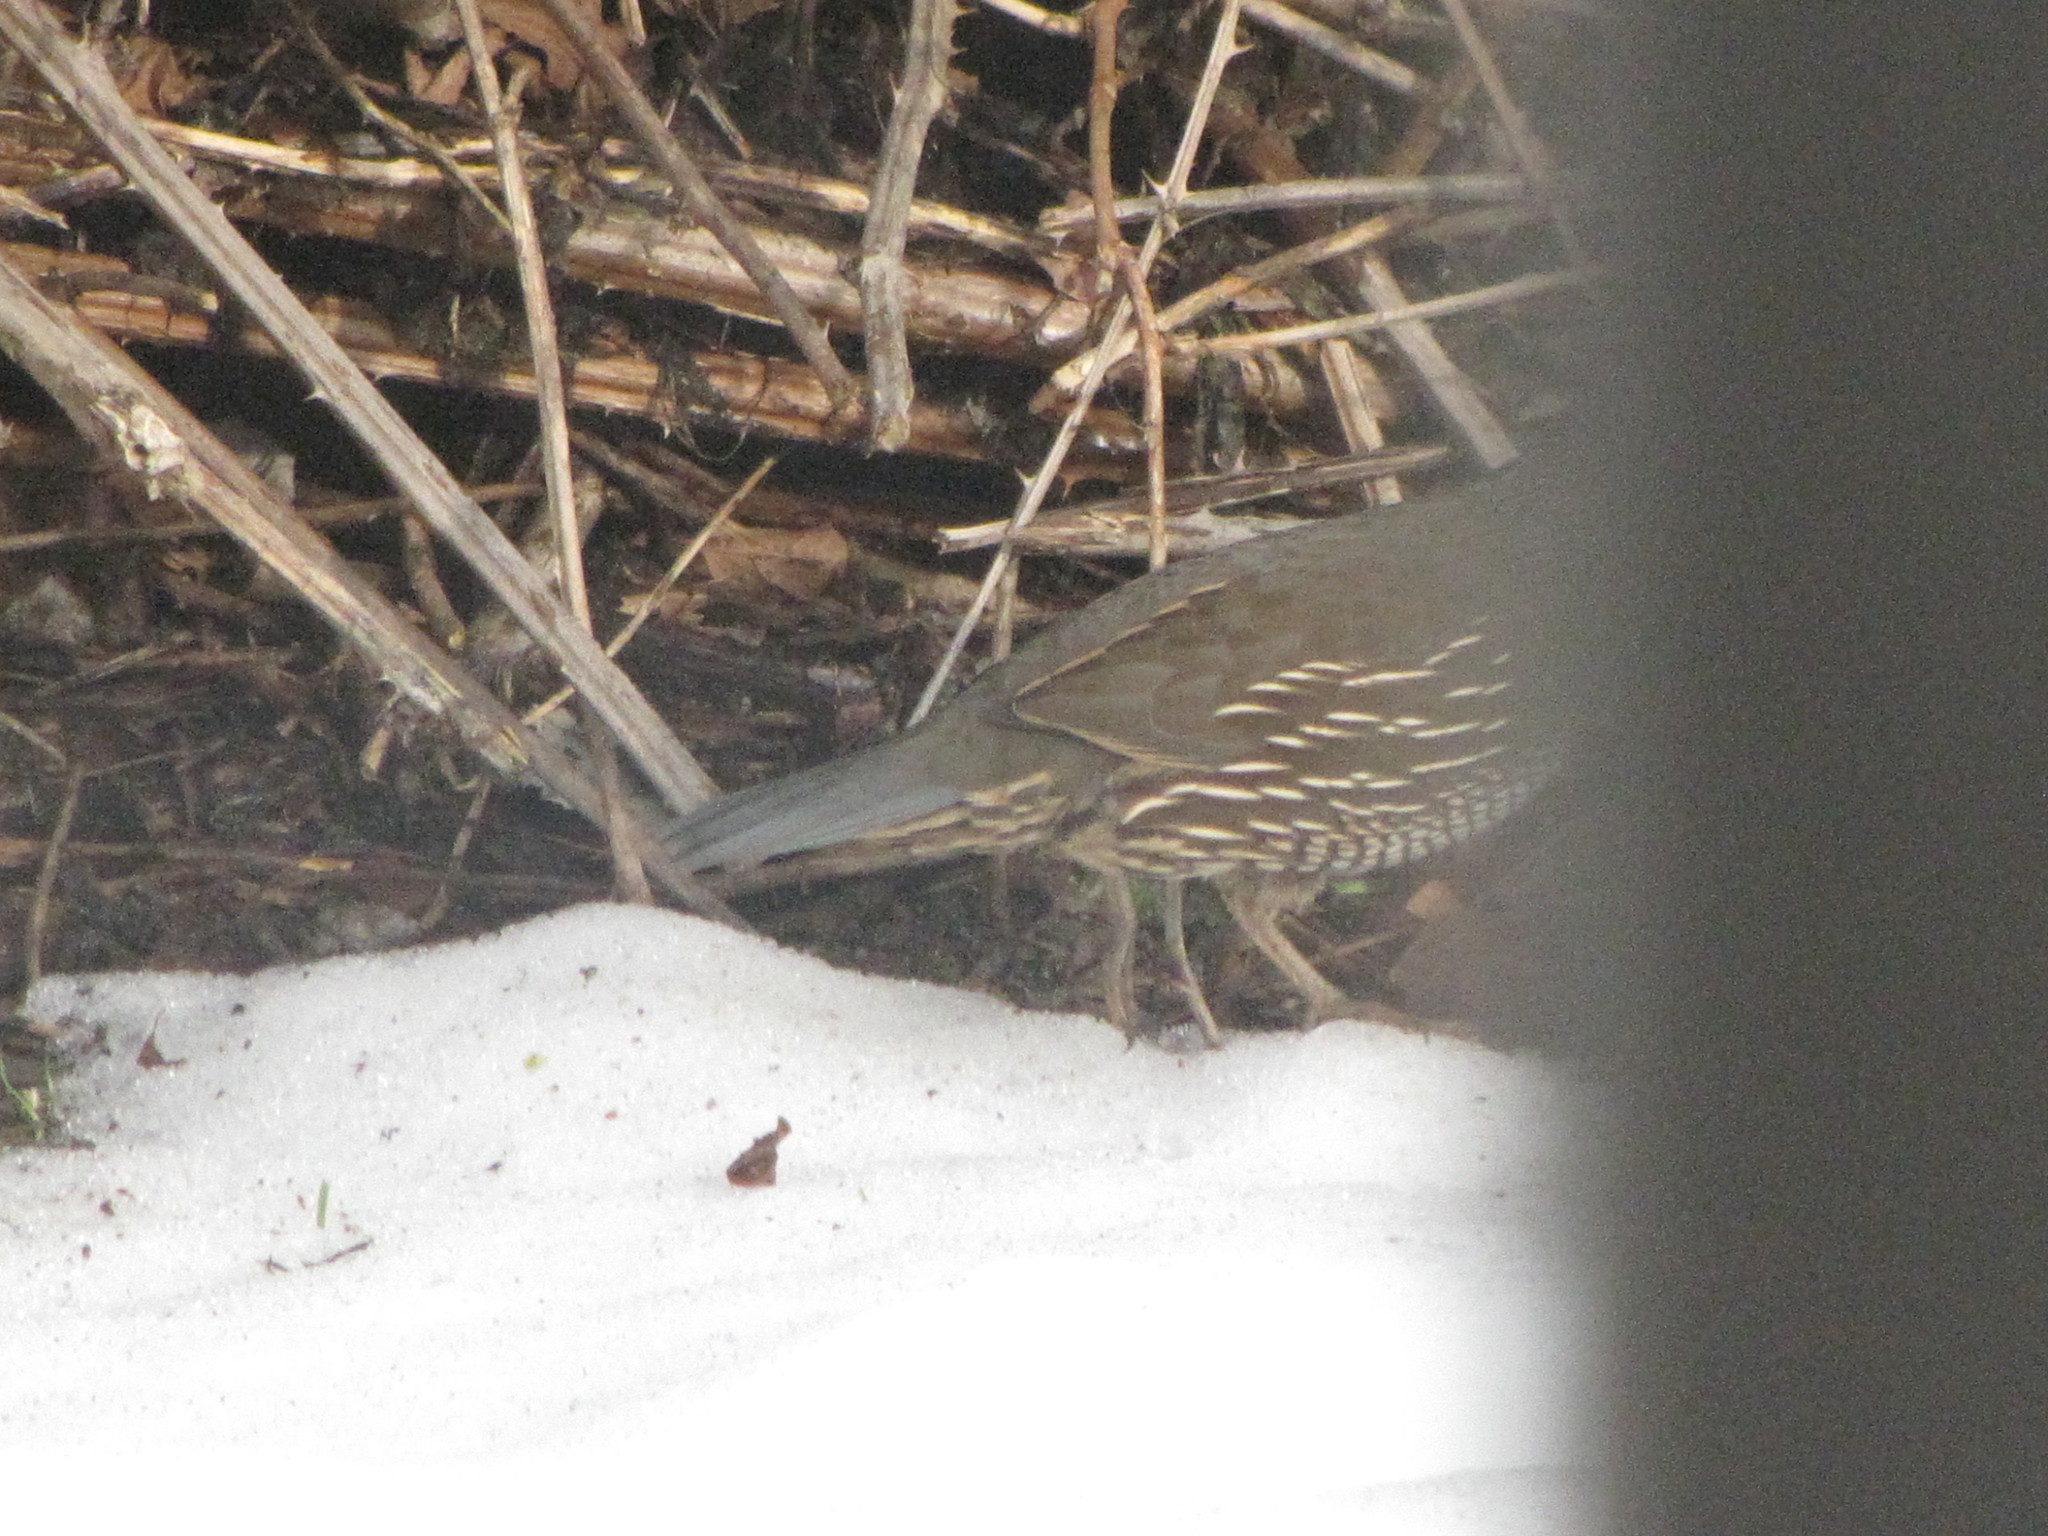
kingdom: Animalia
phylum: Chordata
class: Aves
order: Galliformes
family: Odontophoridae
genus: Callipepla
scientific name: Callipepla californica
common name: California quail
